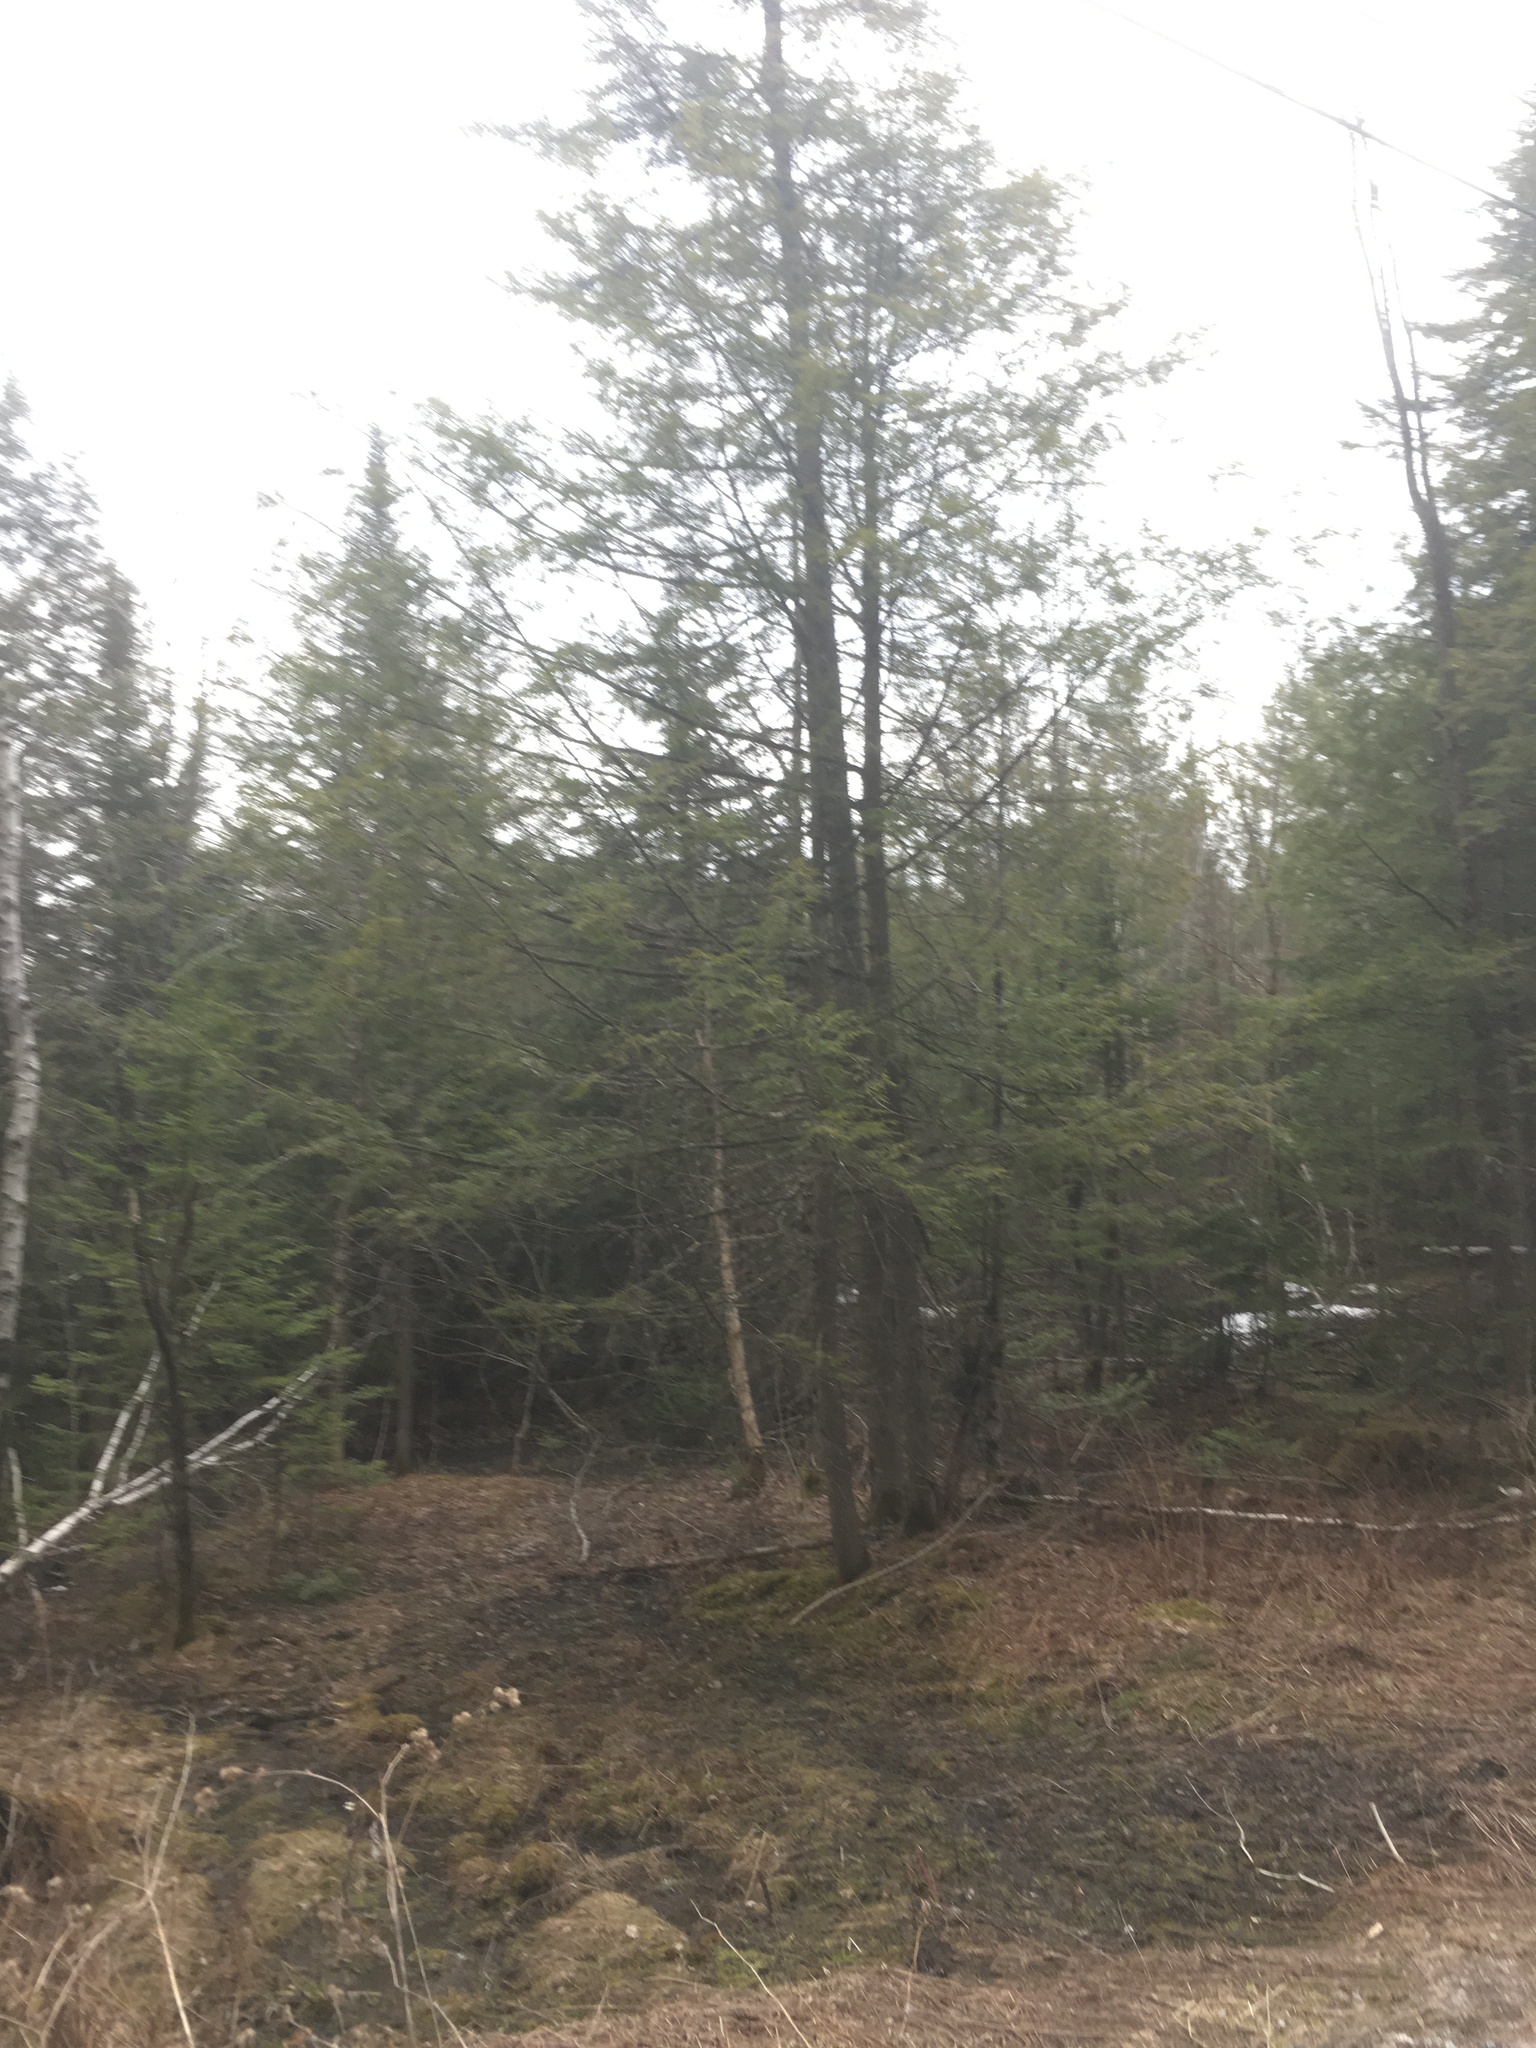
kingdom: Plantae
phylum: Tracheophyta
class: Pinopsida
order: Pinales
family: Pinaceae
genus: Tsuga
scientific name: Tsuga canadensis
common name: Eastern hemlock
